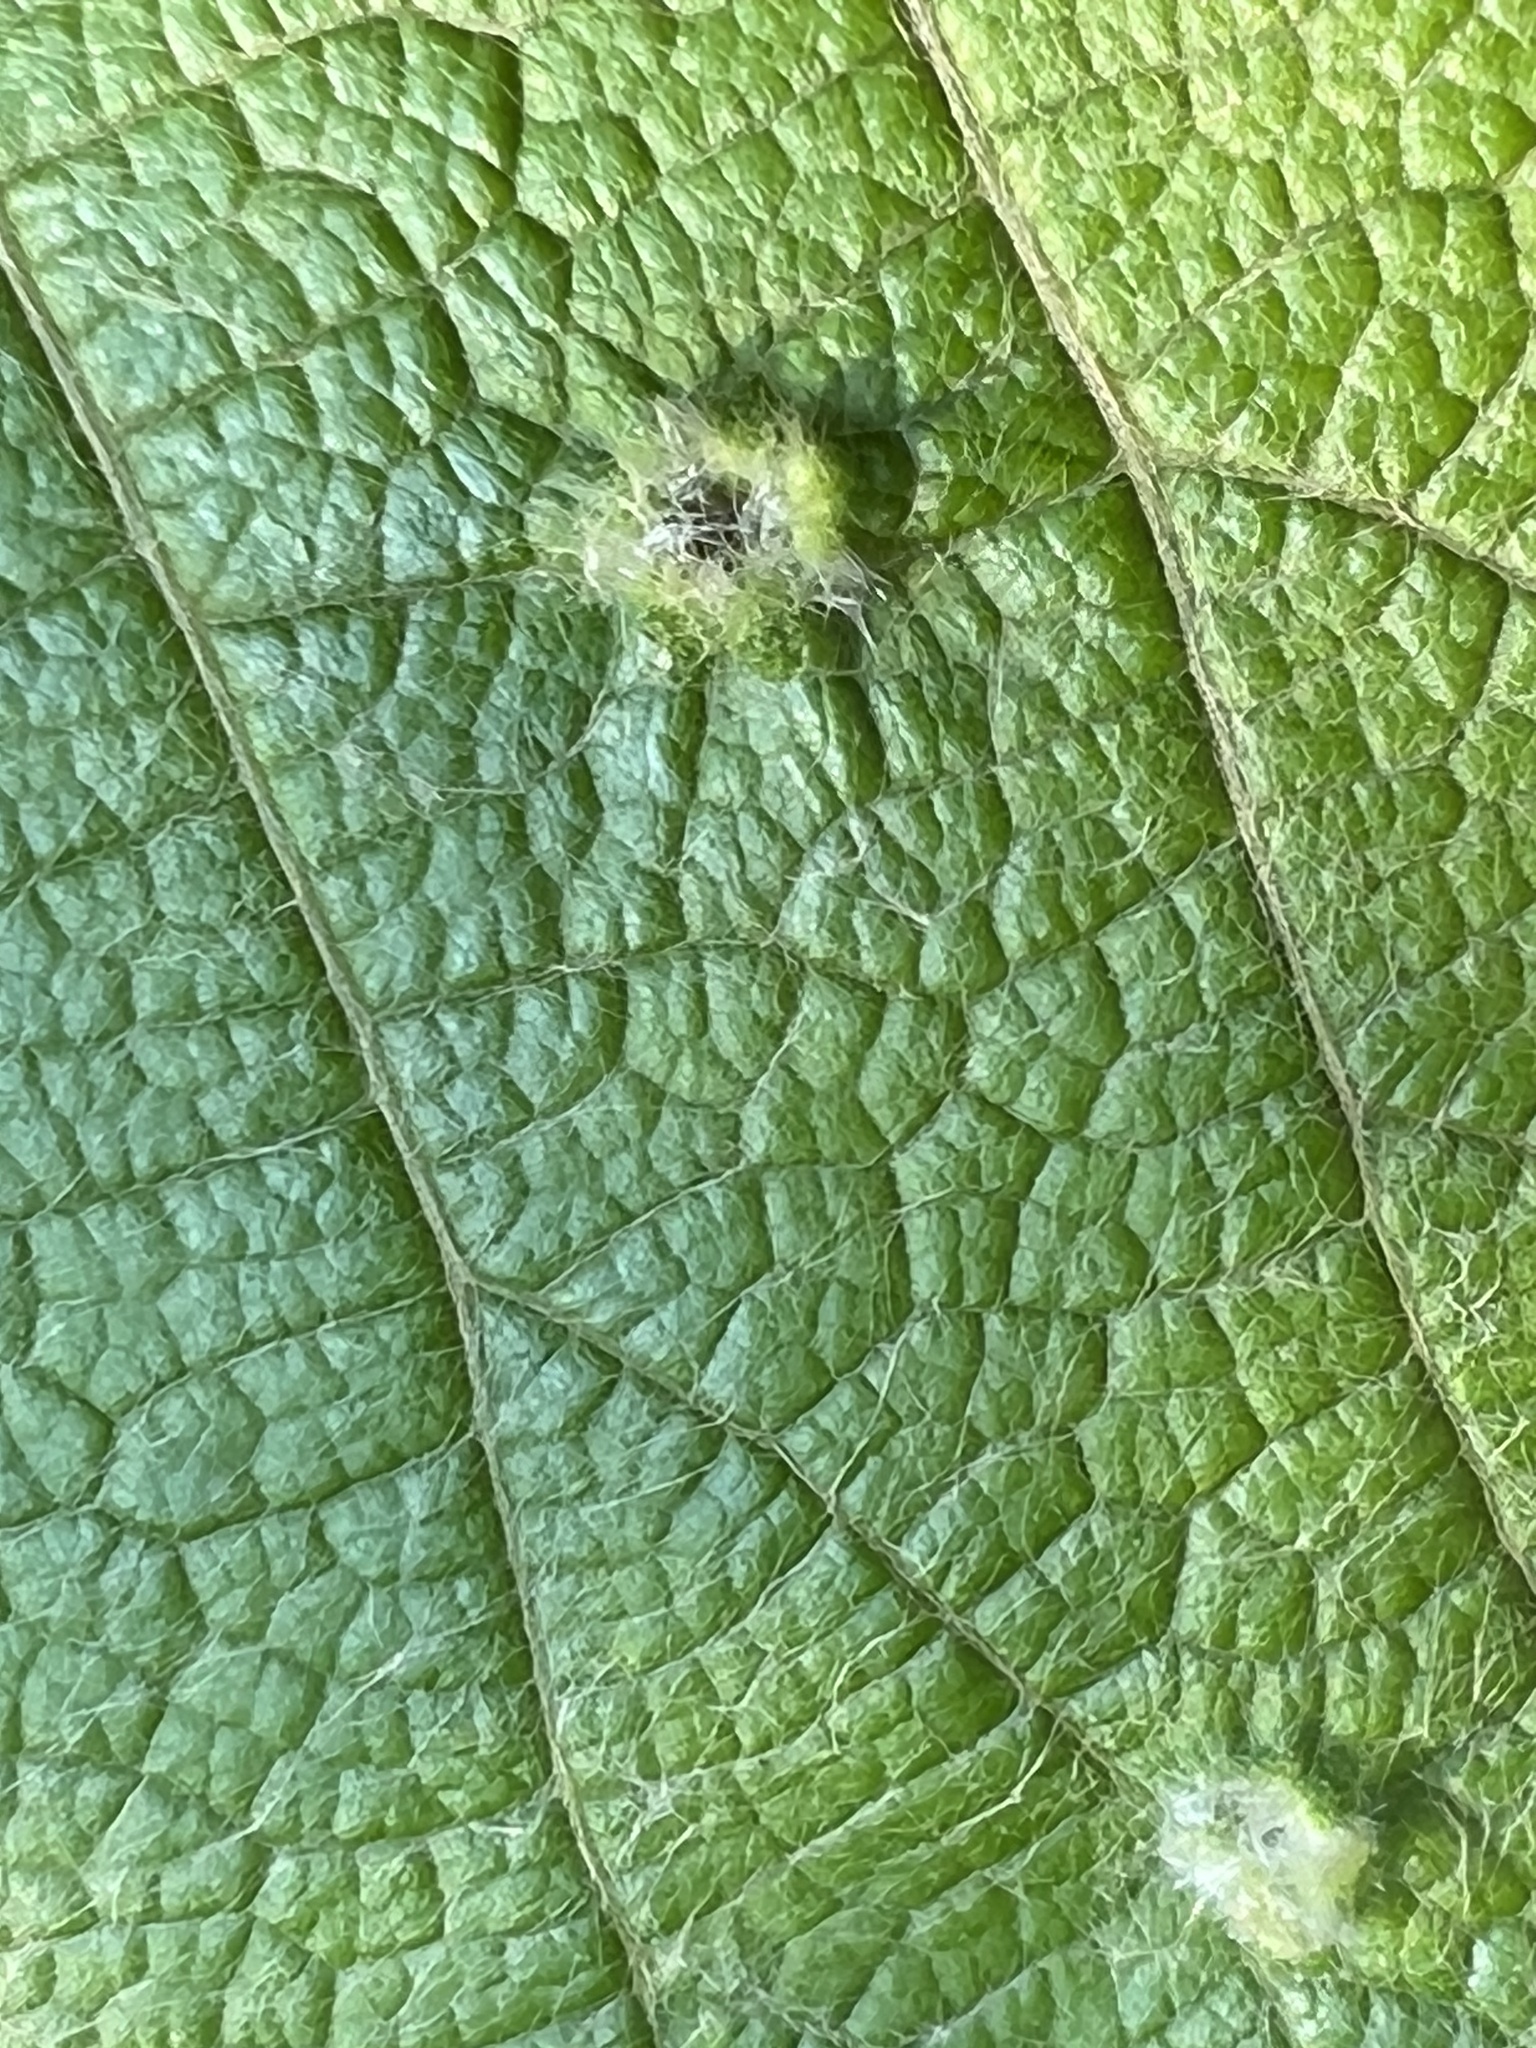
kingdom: Animalia
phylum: Arthropoda
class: Insecta
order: Hemiptera
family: Phylloxeridae
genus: Daktulosphaira
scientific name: Daktulosphaira vitifoliae
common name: Grape phylloxera
